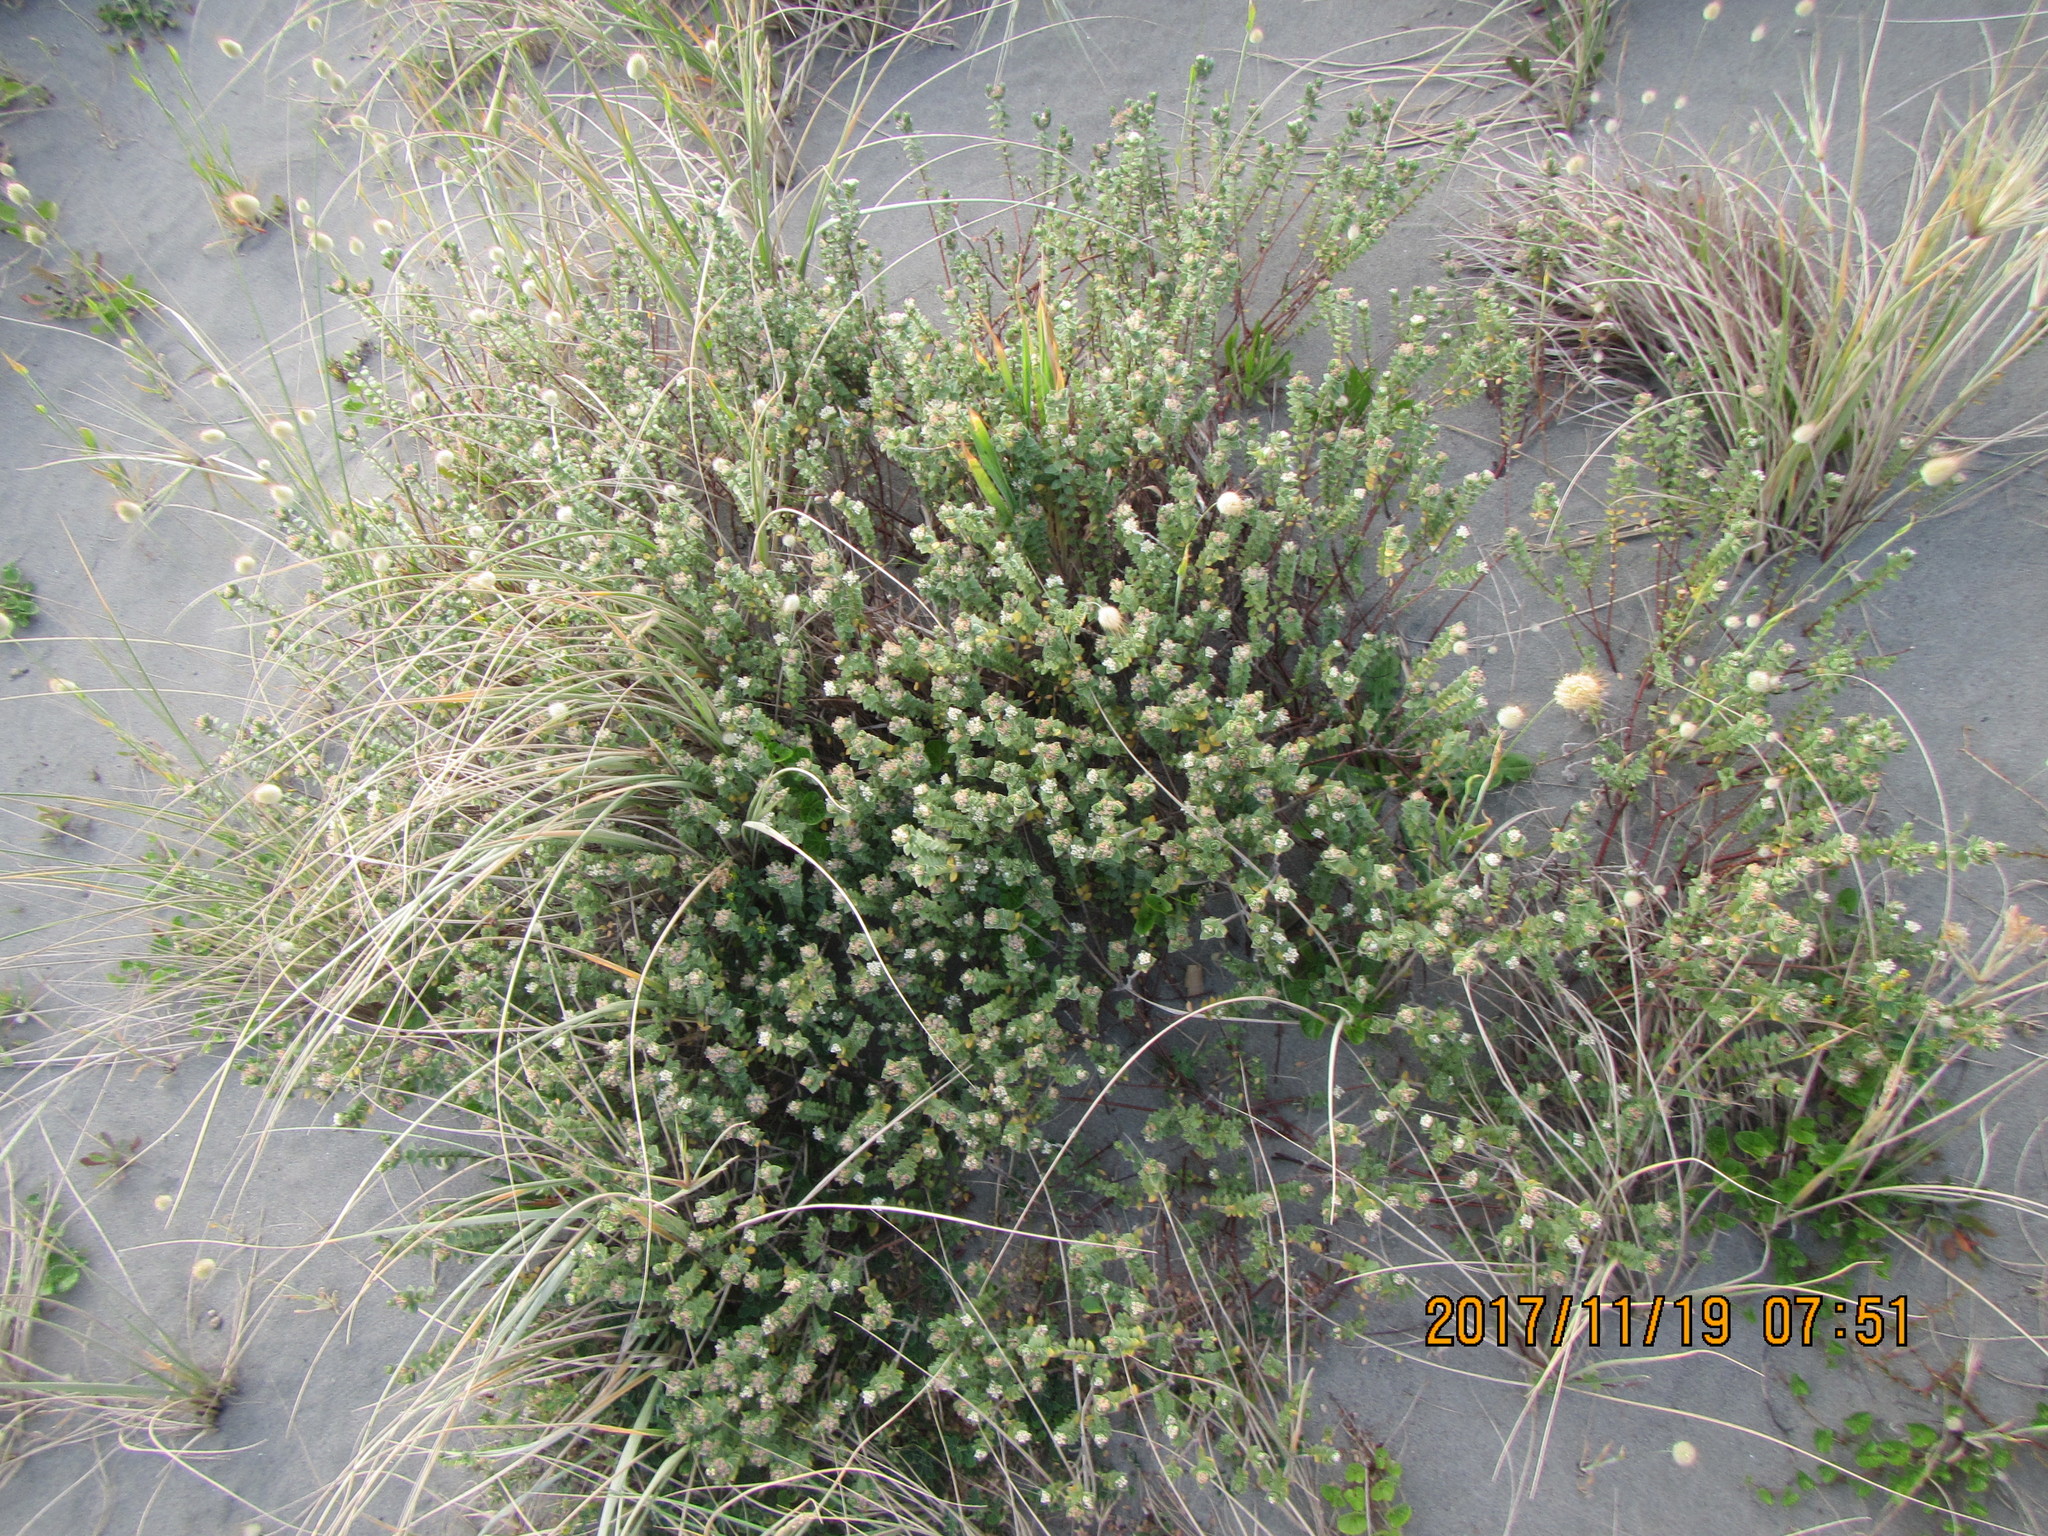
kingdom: Plantae
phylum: Tracheophyta
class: Magnoliopsida
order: Malvales
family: Thymelaeaceae
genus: Pimelea
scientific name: Pimelea villosa
